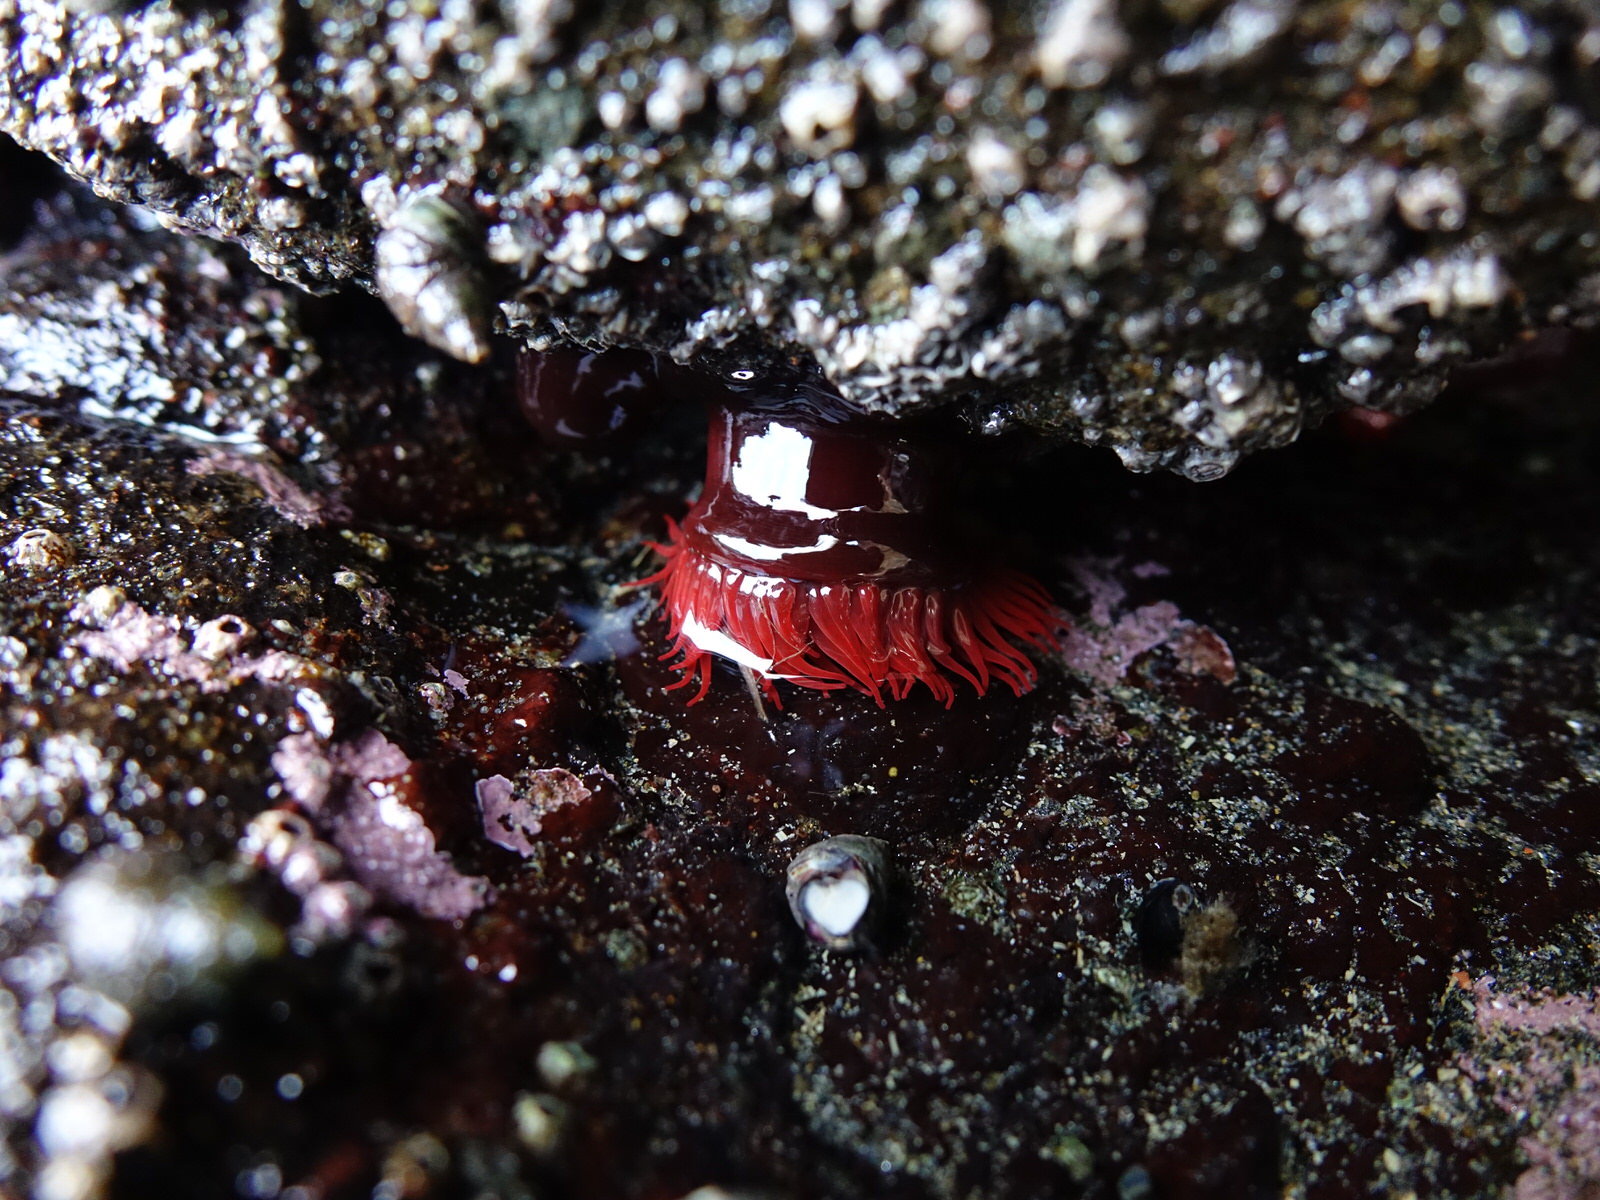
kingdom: Animalia
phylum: Cnidaria
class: Anthozoa
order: Actiniaria
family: Actiniidae
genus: Actinia
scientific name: Actinia tenebrosa
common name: Waratah anemone
